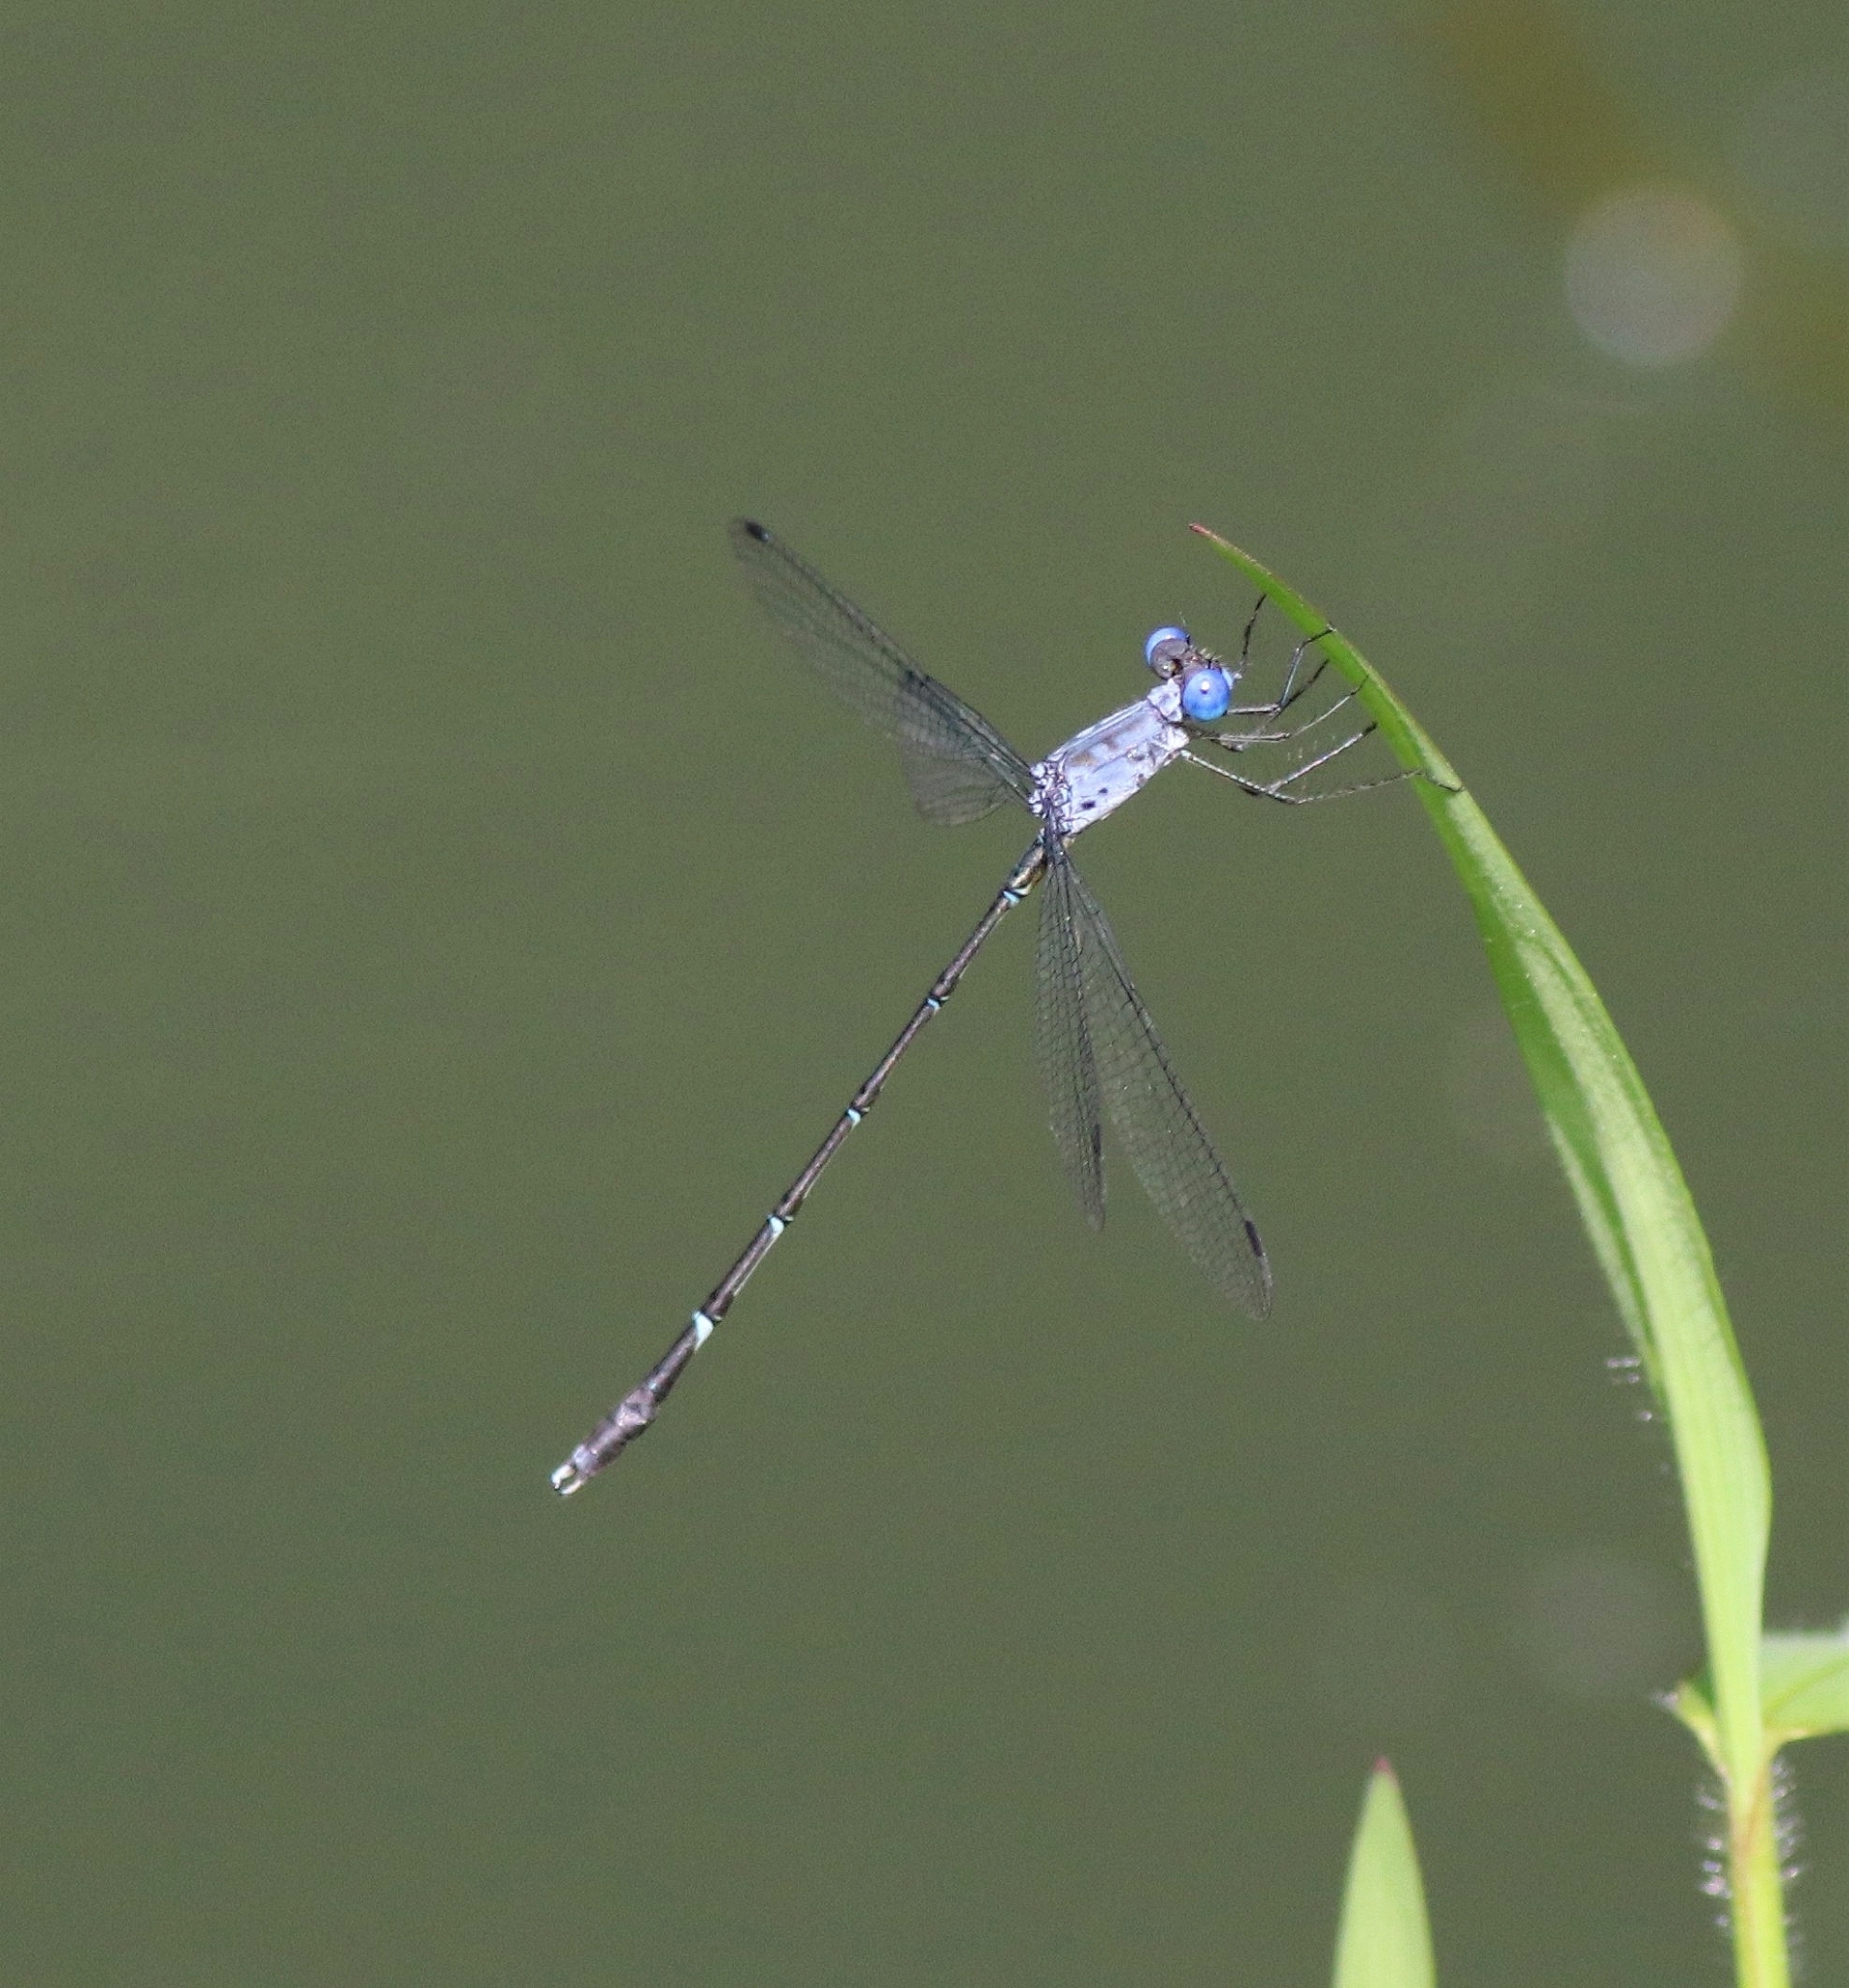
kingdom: Animalia
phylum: Arthropoda
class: Insecta
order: Odonata
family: Lestidae
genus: Lestes
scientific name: Lestes dorothea
